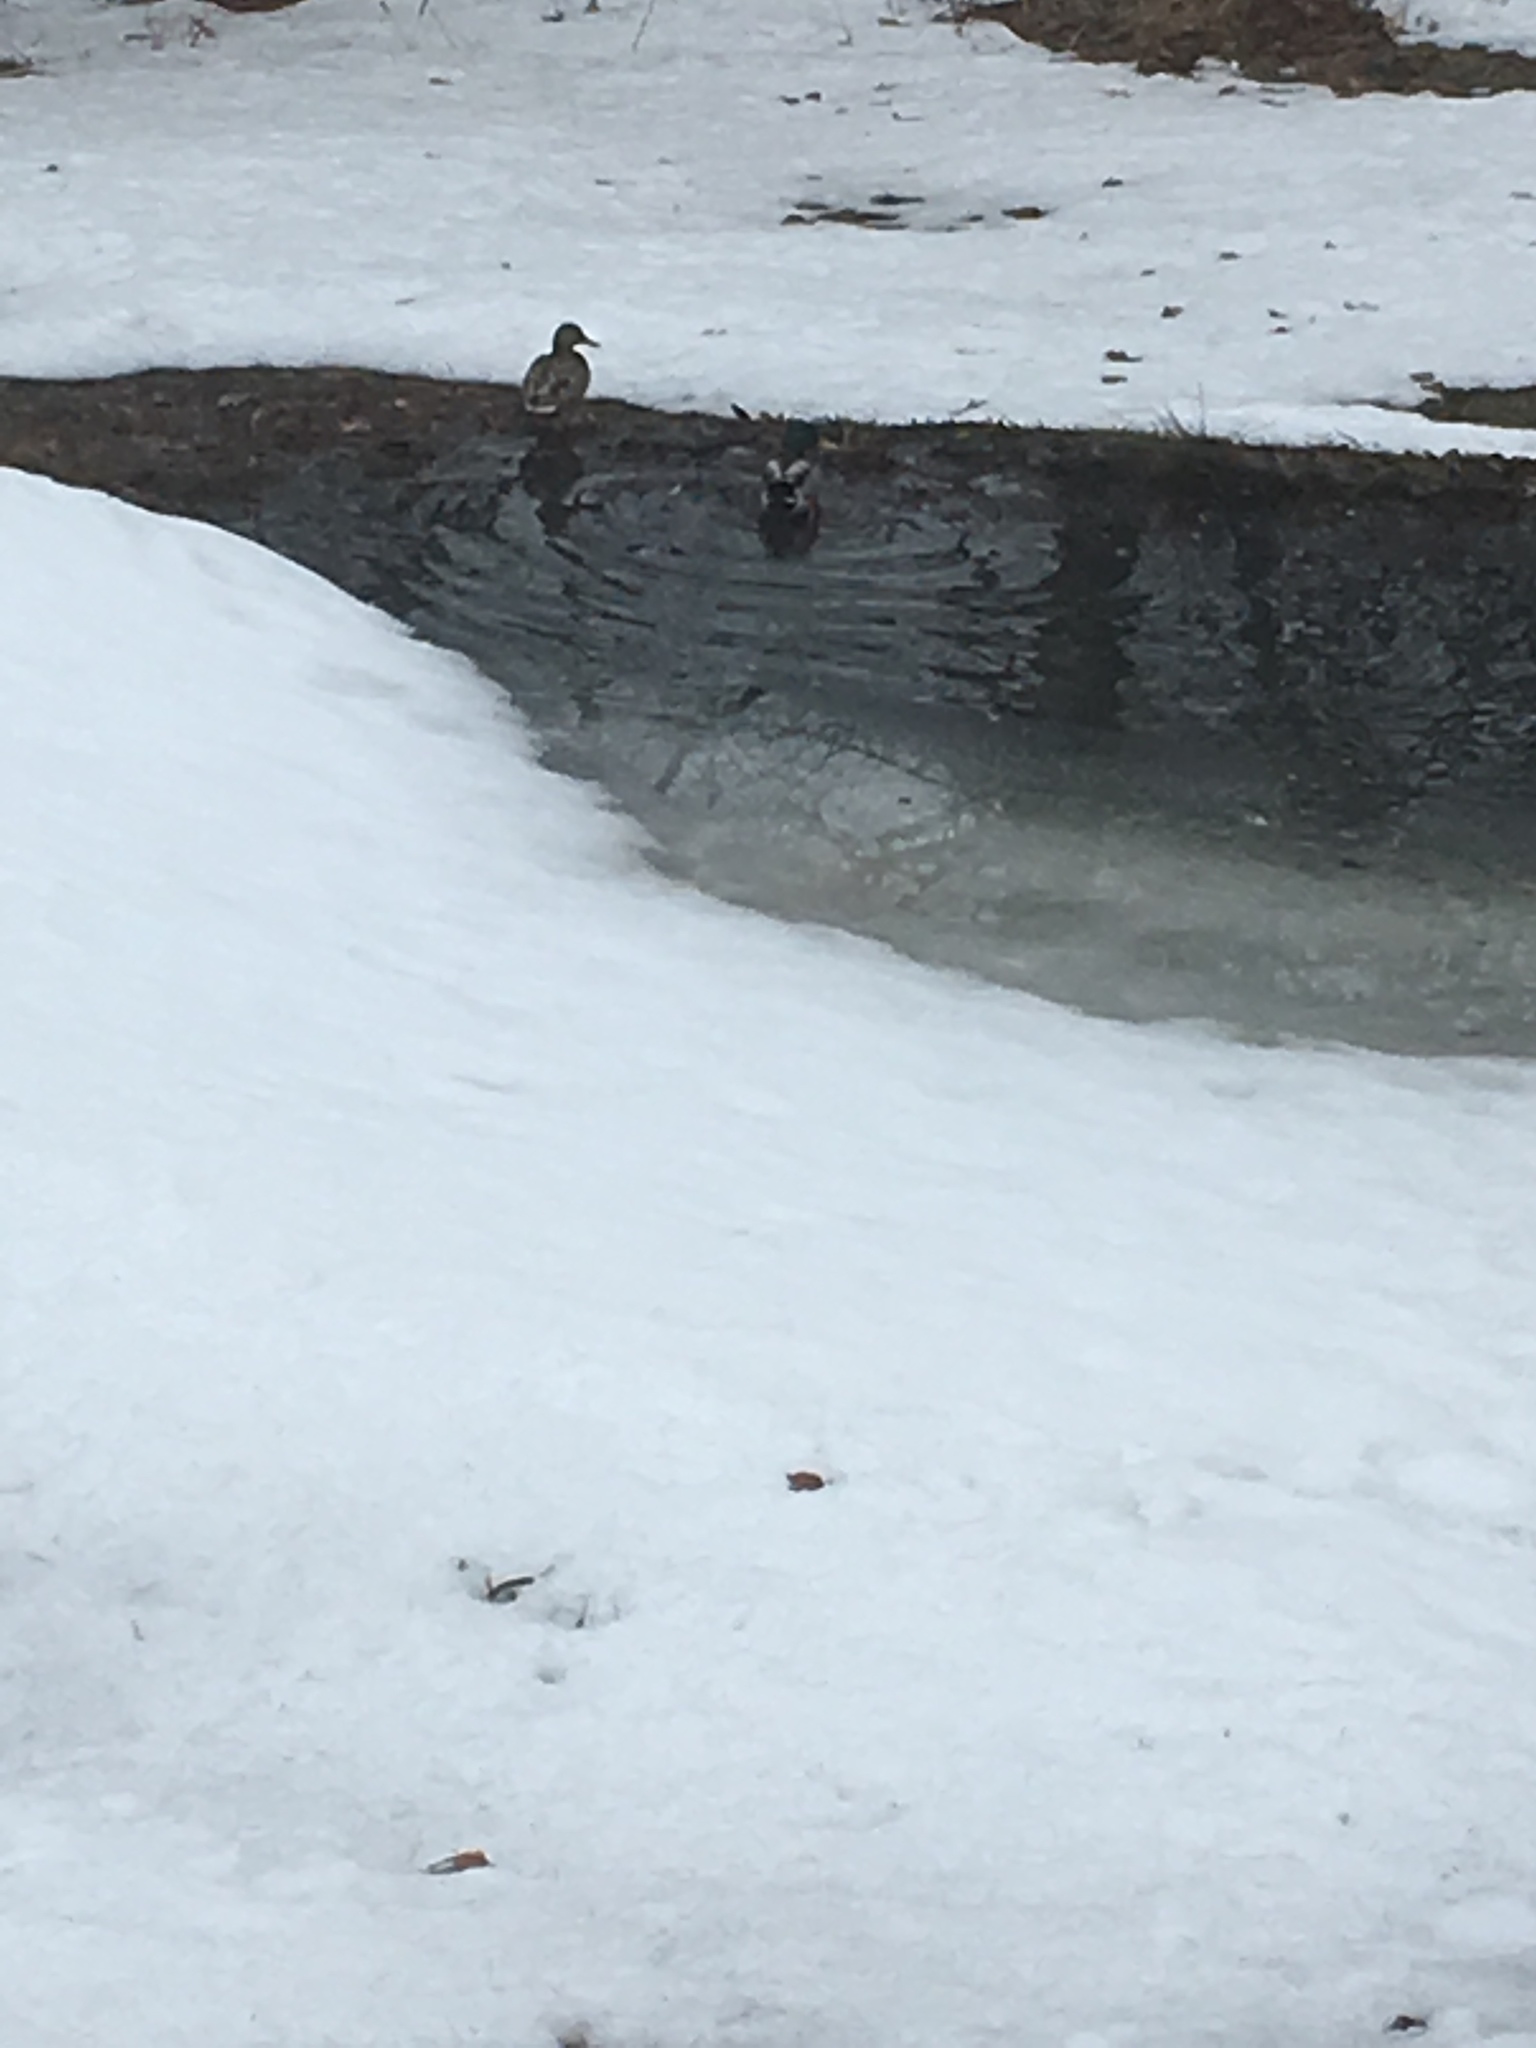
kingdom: Animalia
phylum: Chordata
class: Aves
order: Anseriformes
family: Anatidae
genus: Anas
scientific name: Anas platyrhynchos
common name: Mallard
